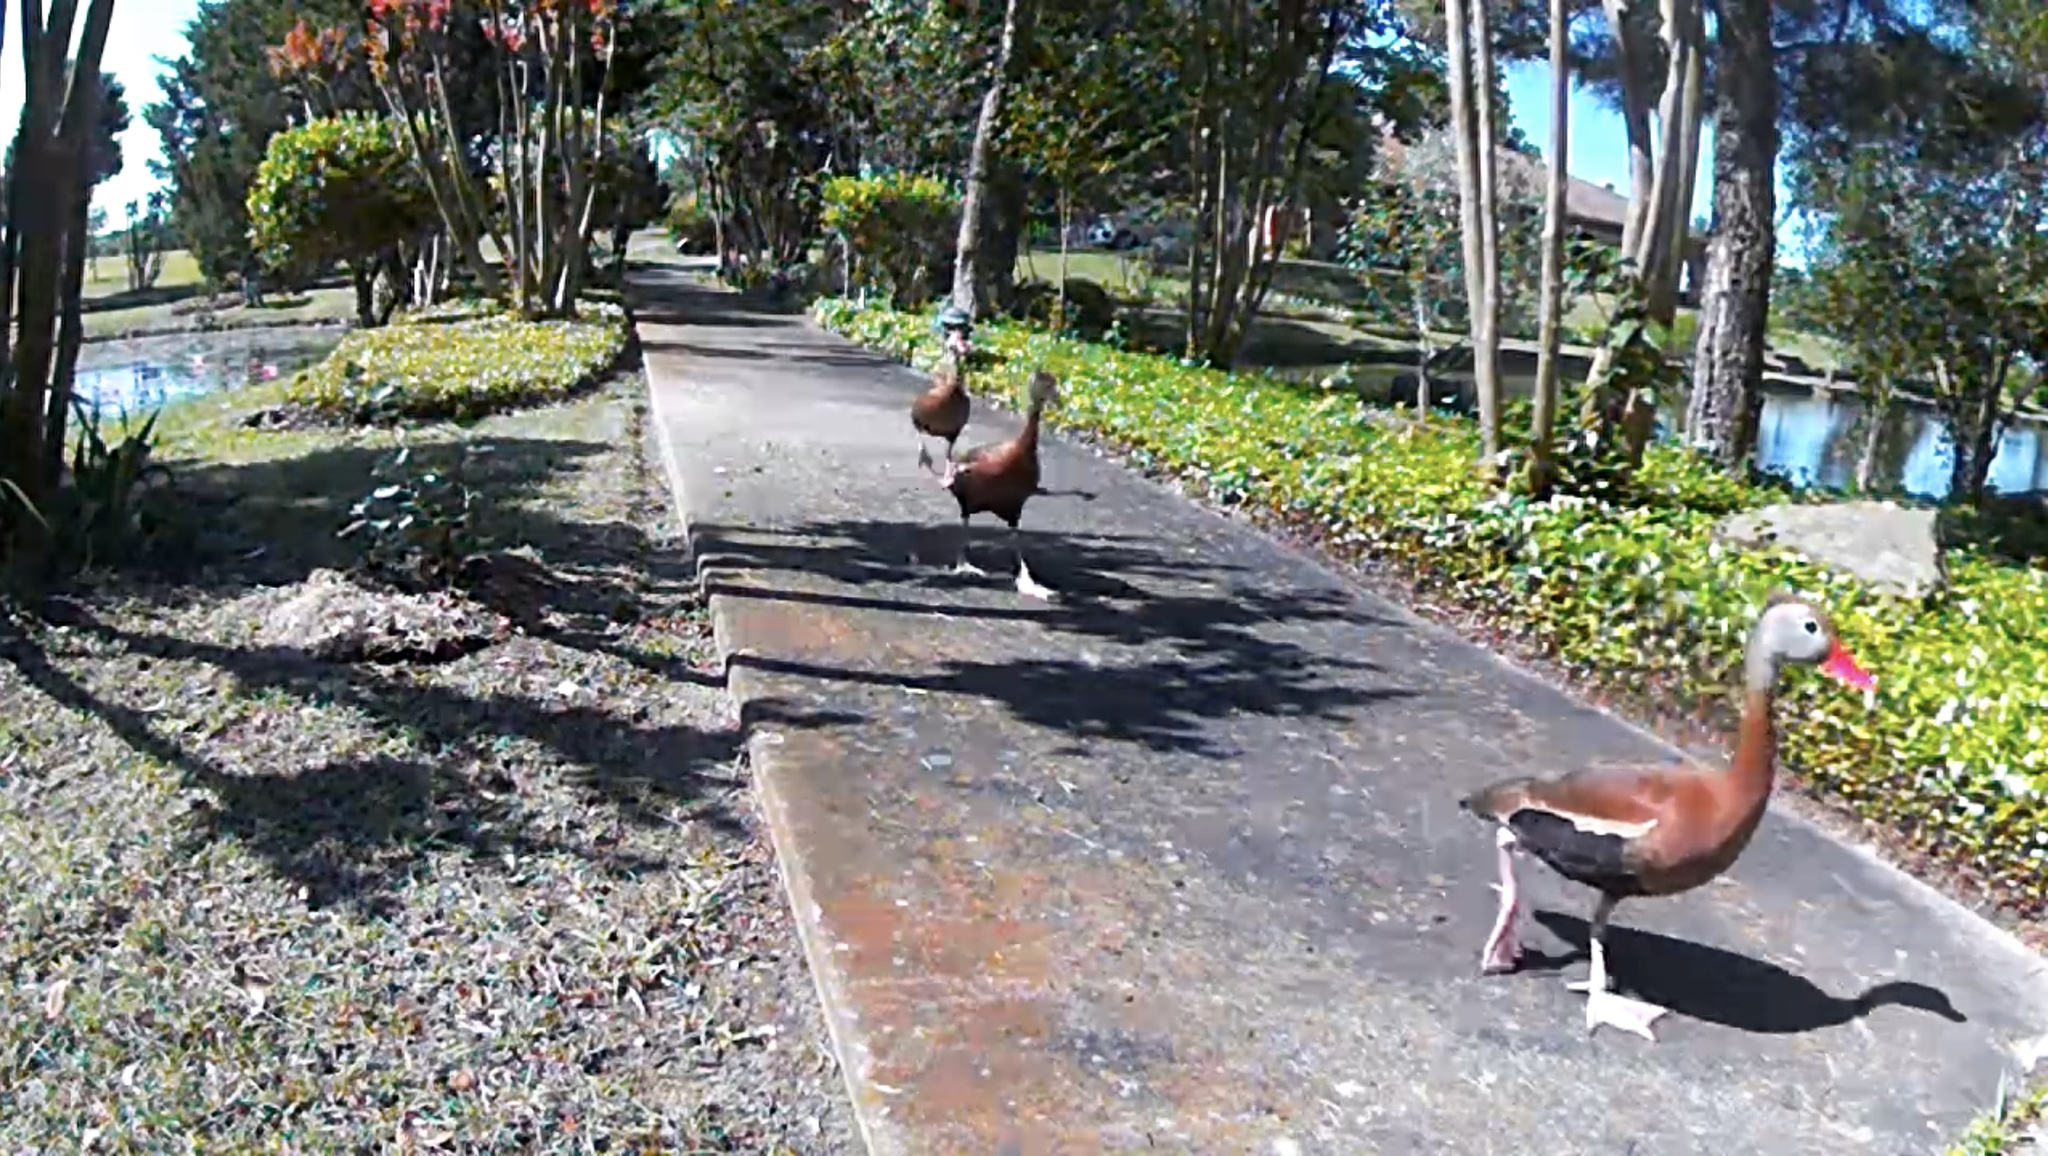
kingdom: Animalia
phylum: Chordata
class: Aves
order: Anseriformes
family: Anatidae
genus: Dendrocygna
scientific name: Dendrocygna autumnalis
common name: Black-bellied whistling duck
